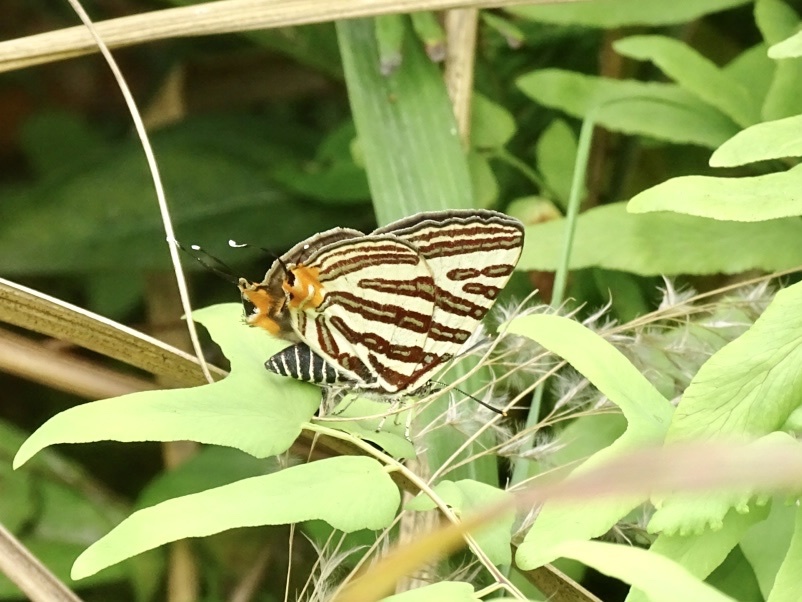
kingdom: Animalia
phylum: Arthropoda
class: Insecta
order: Lepidoptera
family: Lycaenidae
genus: Cigaritis
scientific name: Cigaritis lohita
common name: Long-banded silverline
